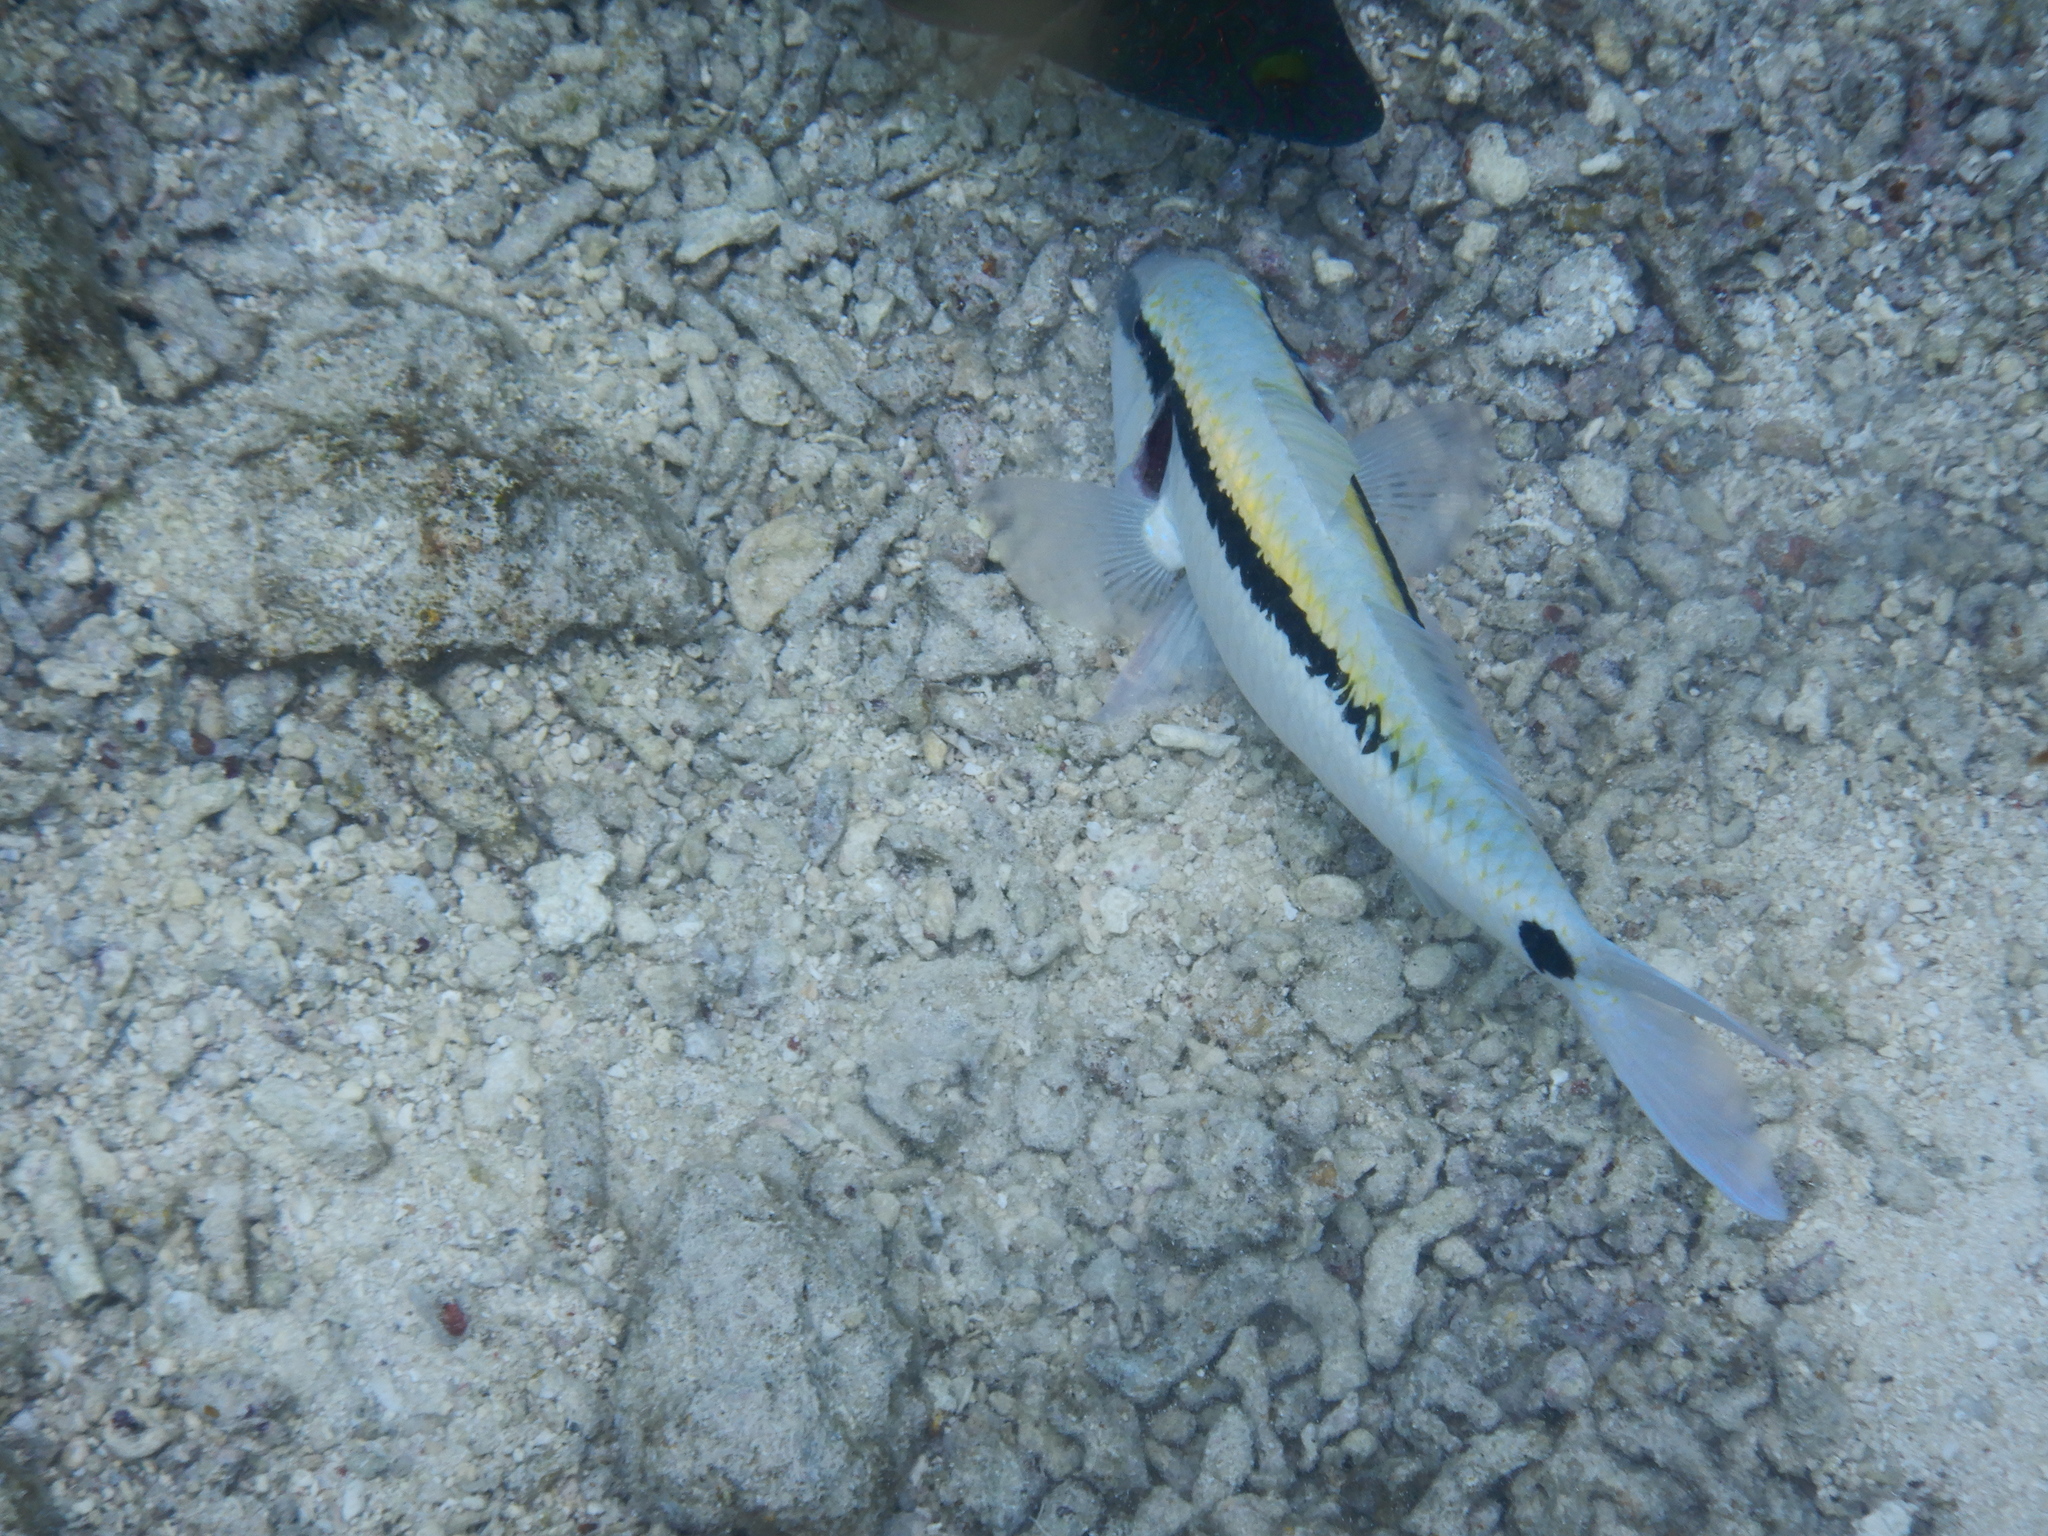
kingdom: Animalia
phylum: Chordata
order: Perciformes
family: Mullidae
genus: Parupeneus
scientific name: Parupeneus barberinus
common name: Dash-and-dot goatfish
